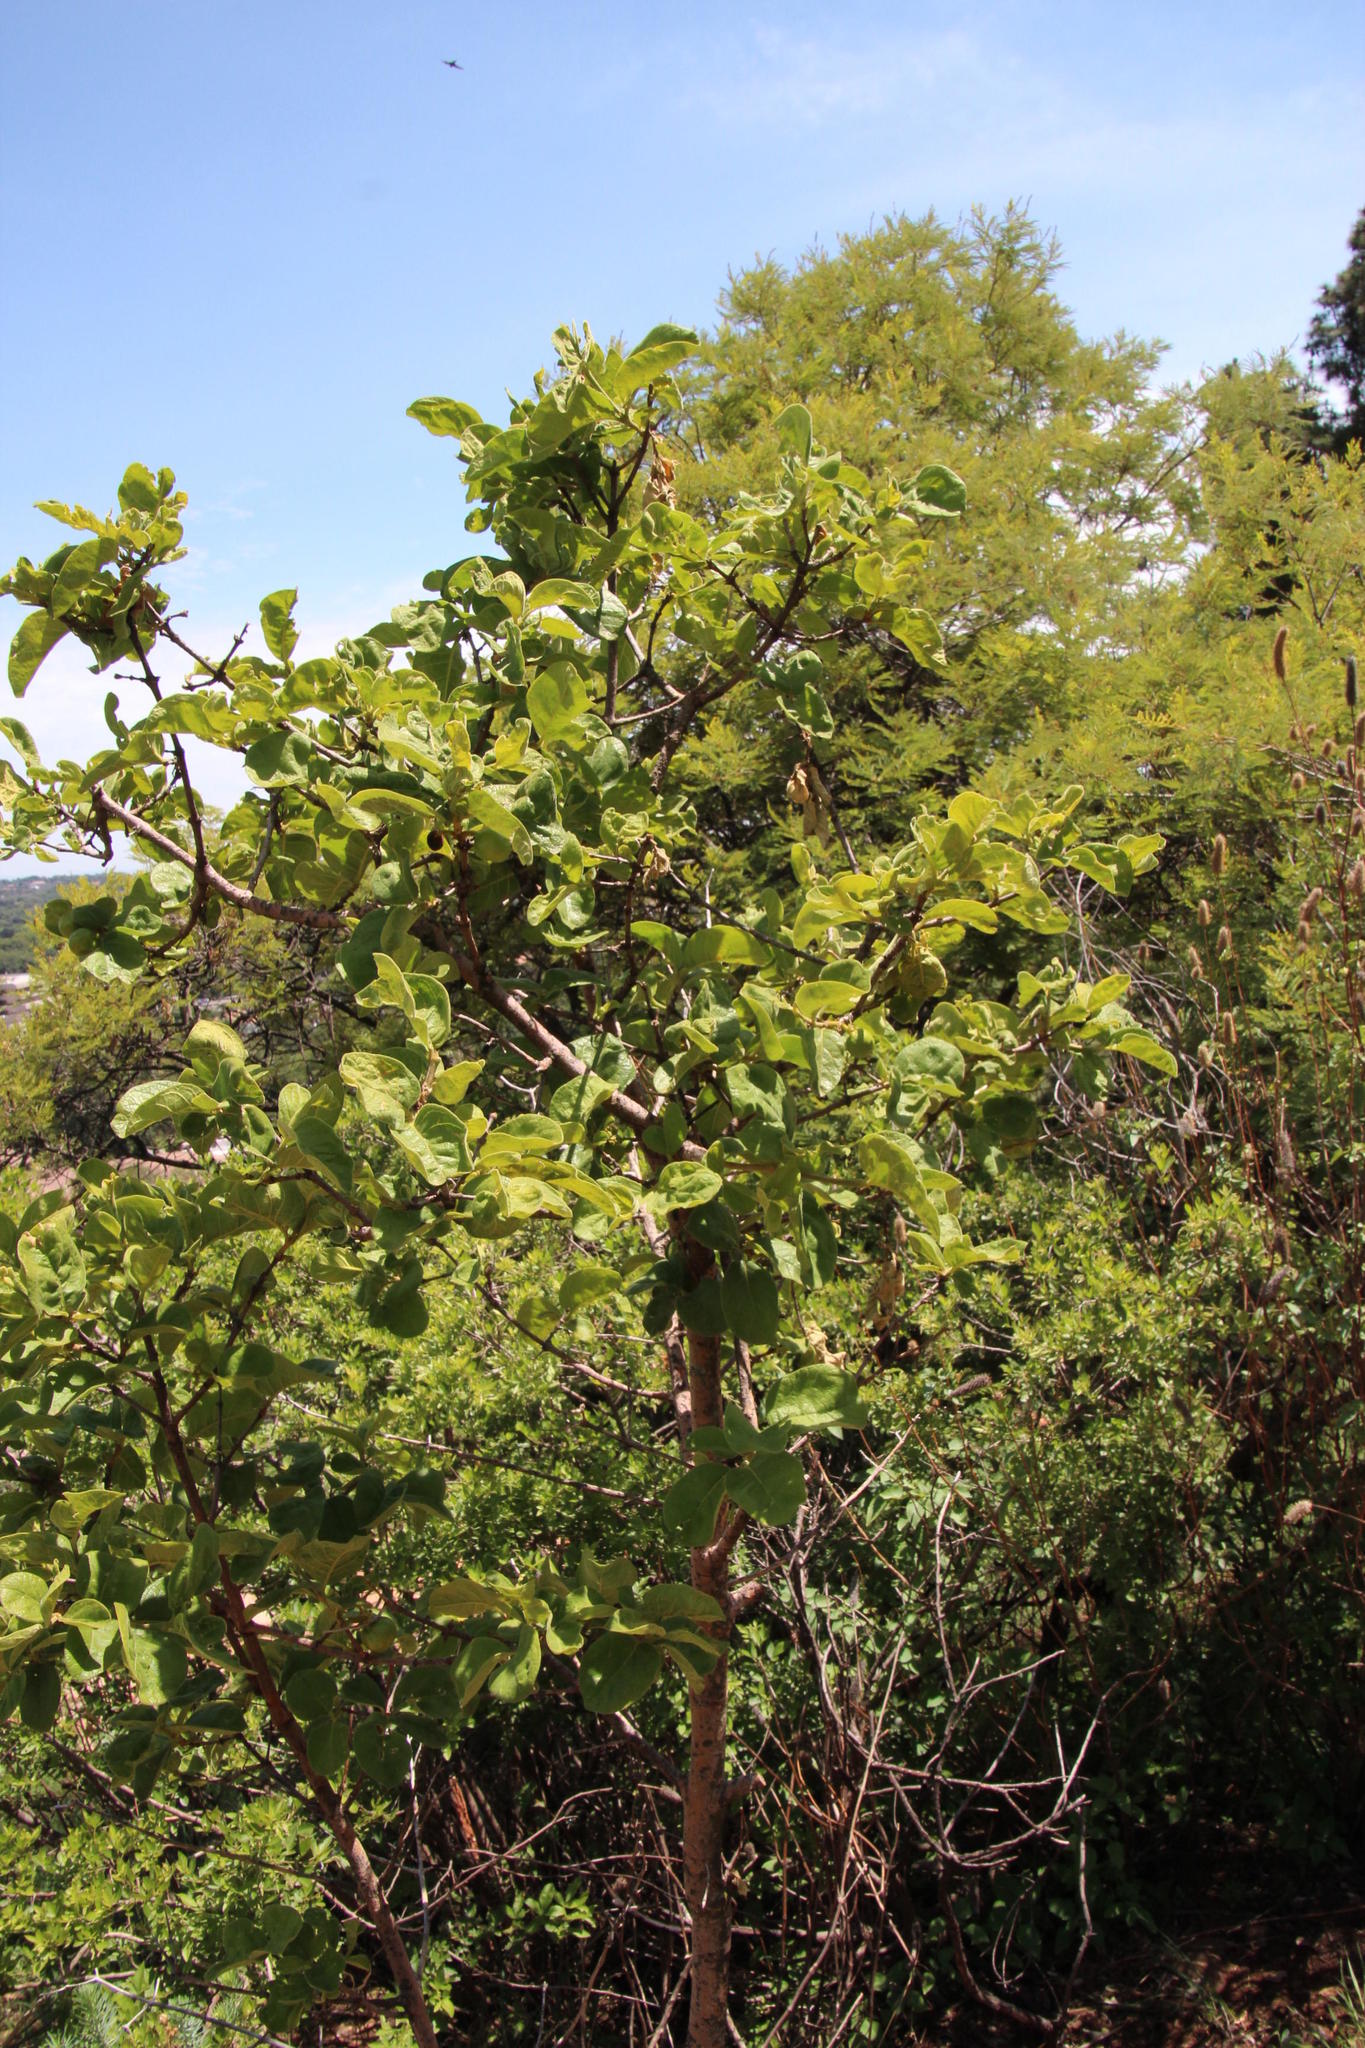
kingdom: Plantae
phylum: Tracheophyta
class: Magnoliopsida
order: Gentianales
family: Rubiaceae
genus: Vangueria
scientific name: Vangueria infausta
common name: Medlar
